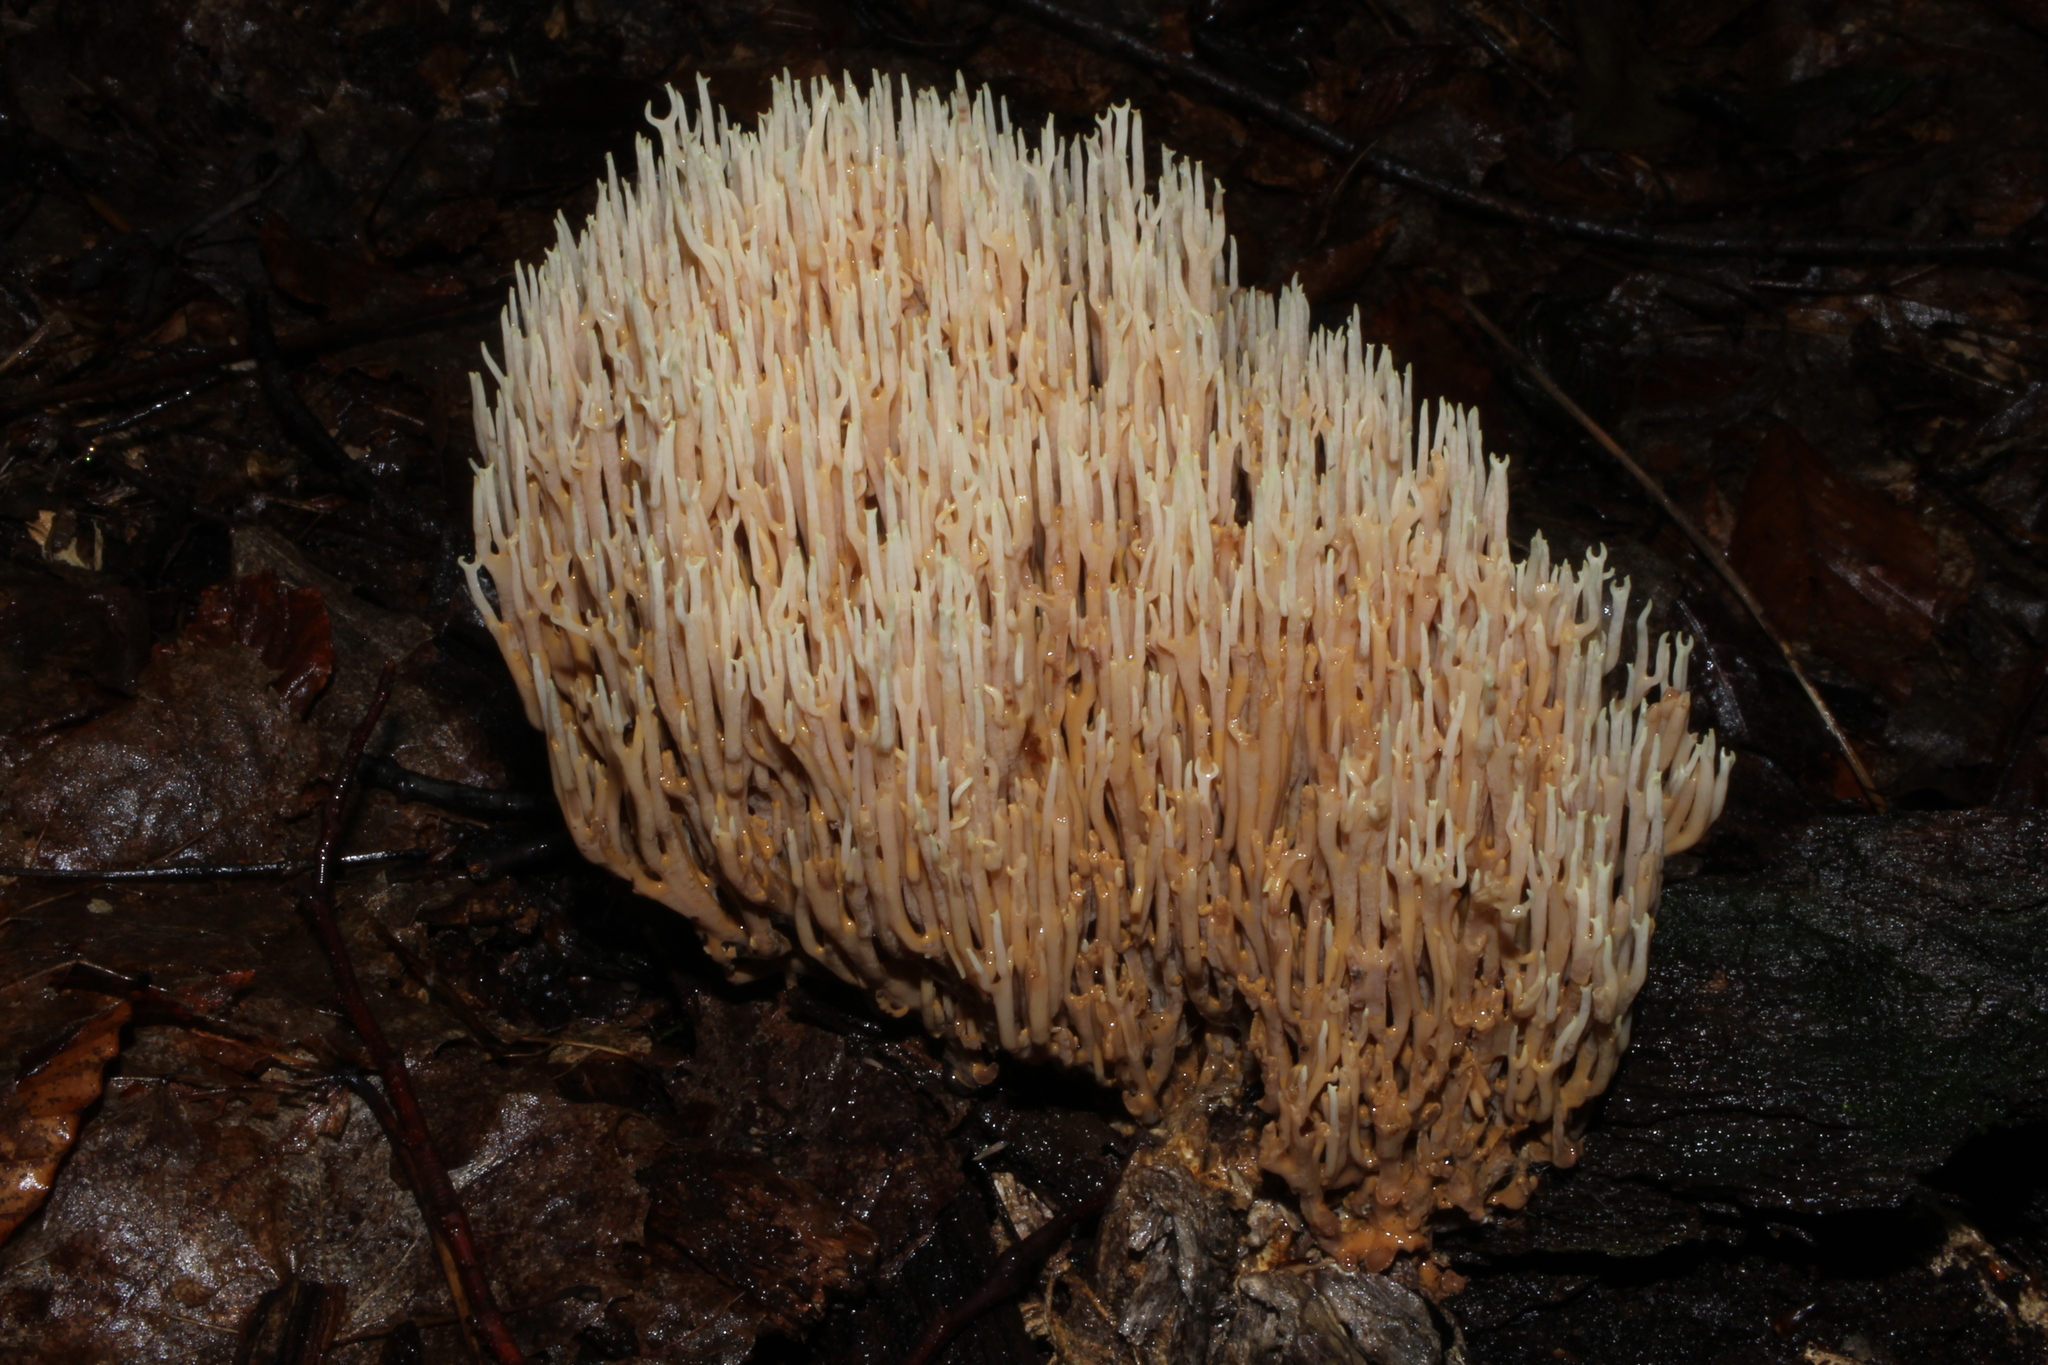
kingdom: Fungi
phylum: Basidiomycota
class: Agaricomycetes
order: Gomphales
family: Gomphaceae
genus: Ramaria
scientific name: Ramaria stricta
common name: Upright coral
